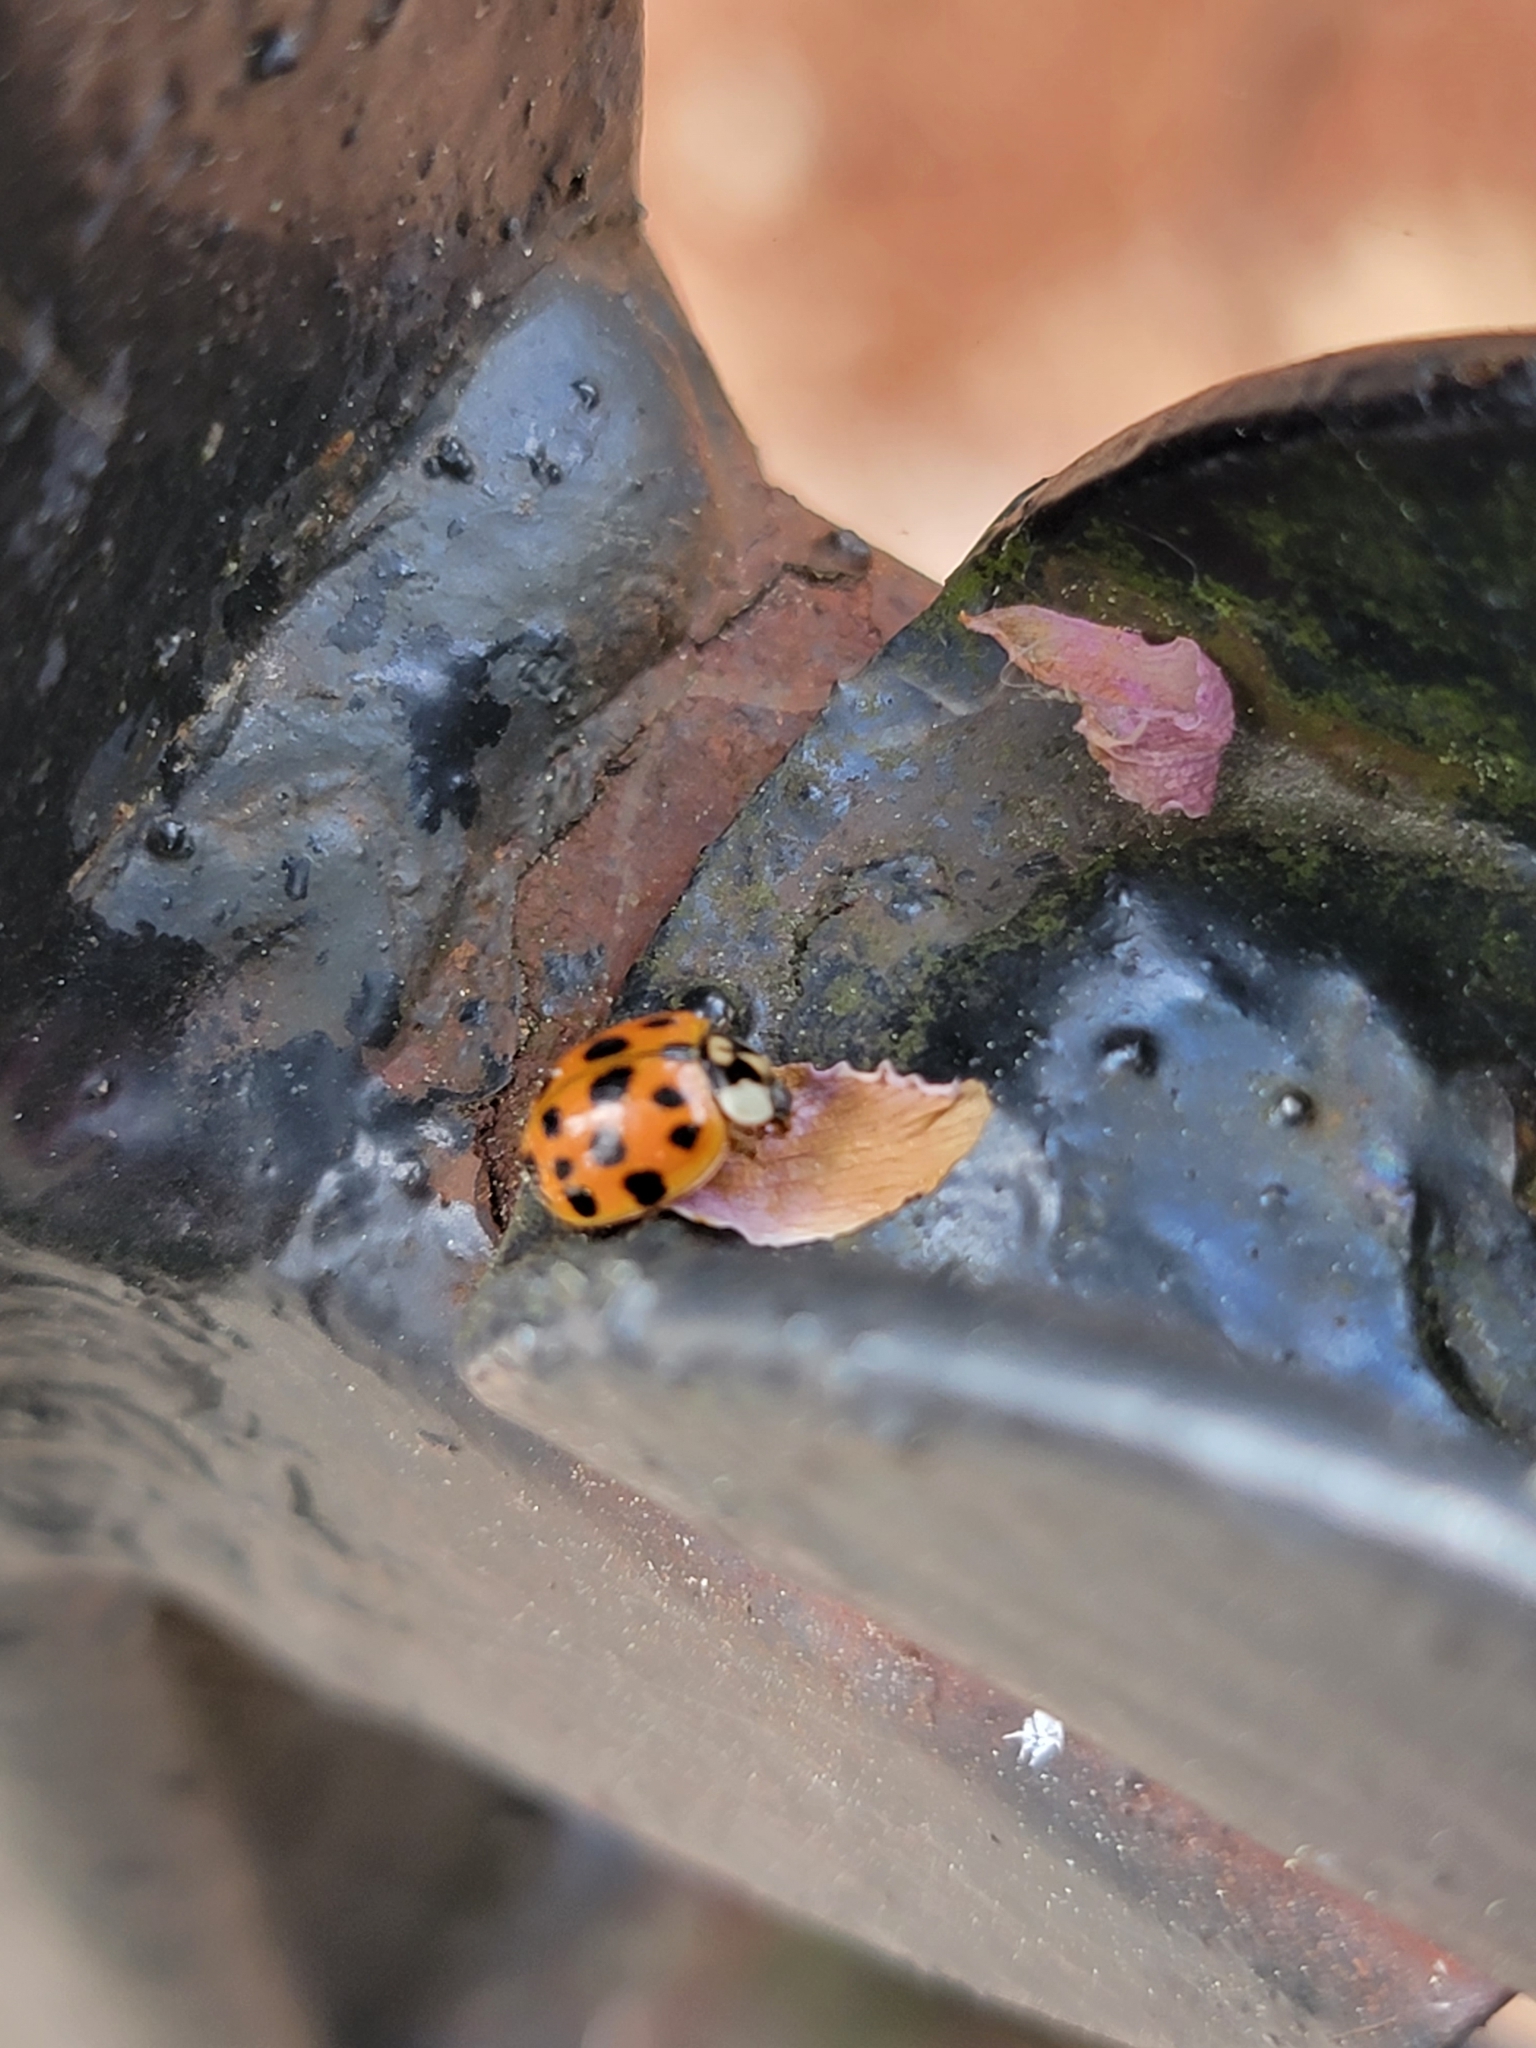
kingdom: Animalia
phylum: Arthropoda
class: Insecta
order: Coleoptera
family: Coccinellidae
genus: Harmonia
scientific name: Harmonia axyridis
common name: Harlequin ladybird
